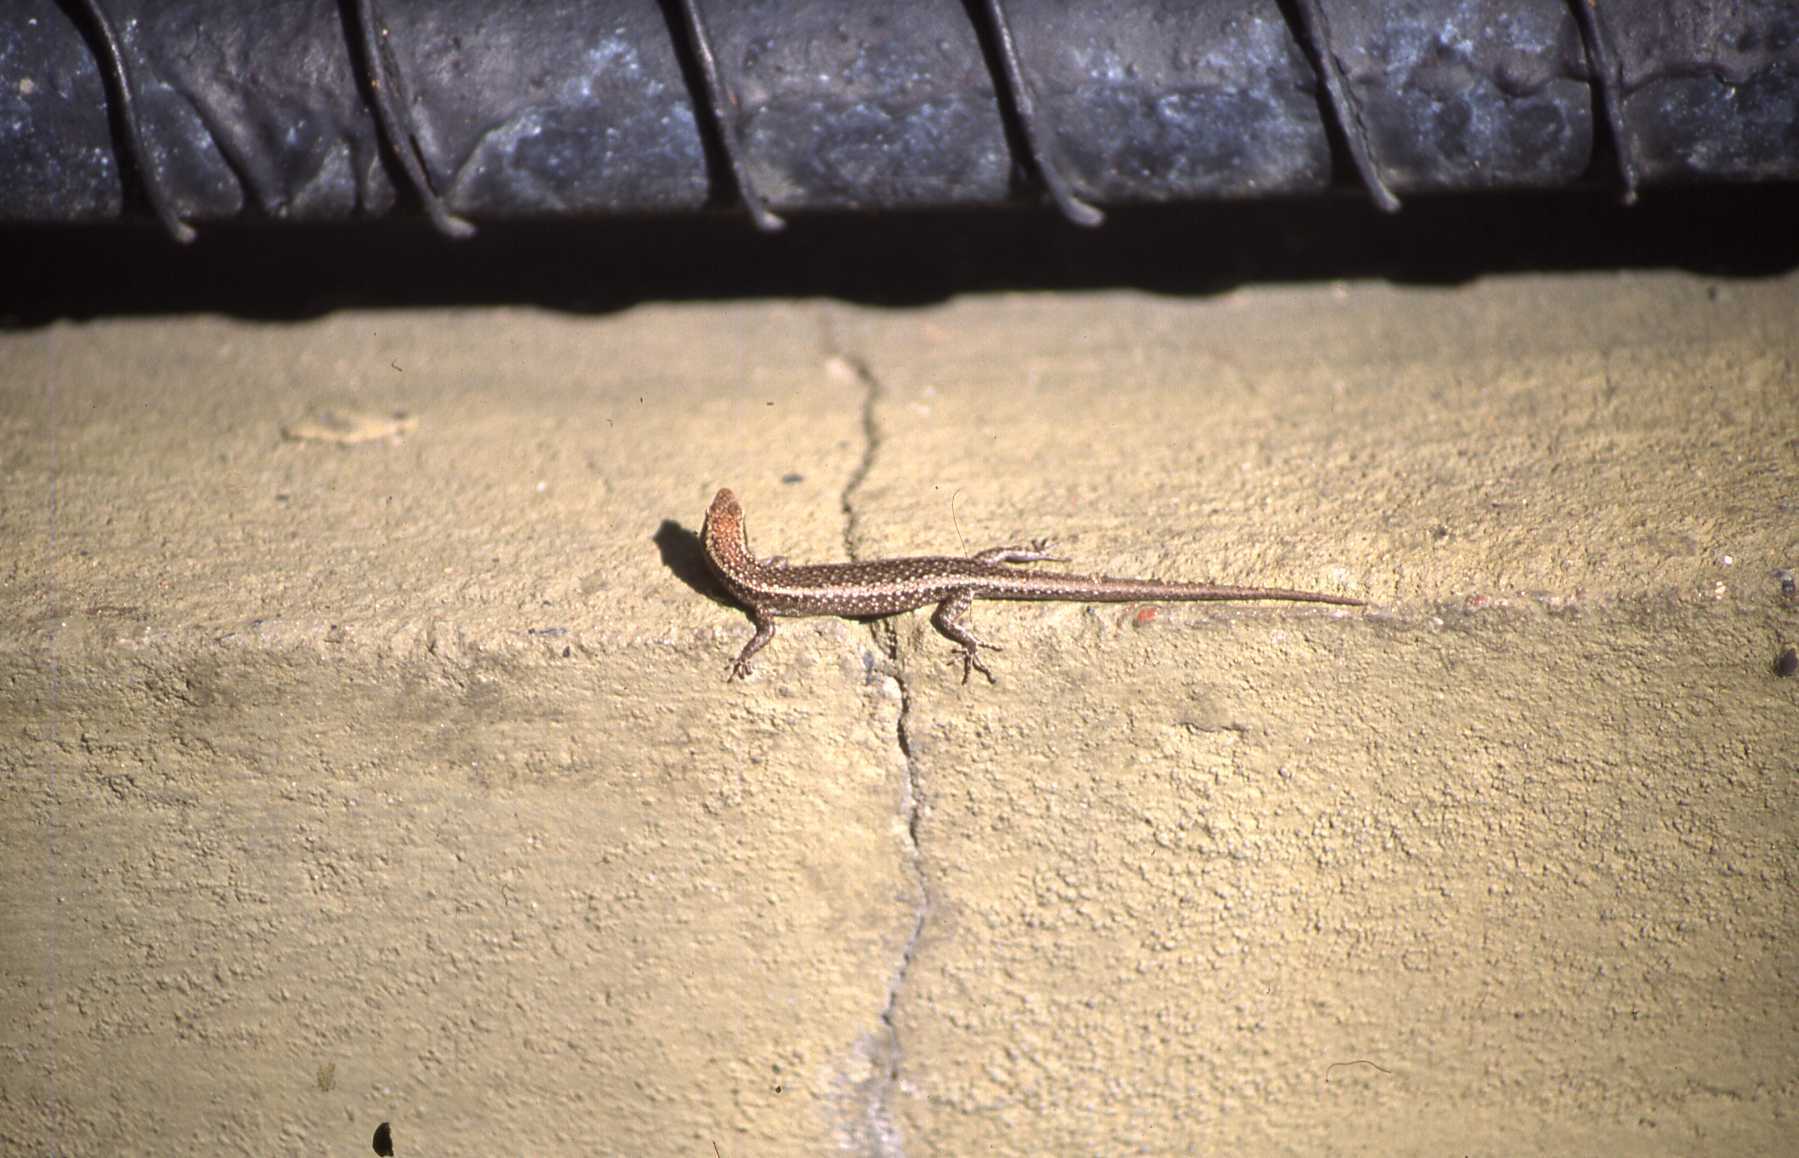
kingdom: Animalia
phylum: Chordata
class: Squamata
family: Scincidae
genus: Cryptoblepharus
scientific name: Cryptoblepharus buchananii
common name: Buchanan's snake-eyed skink
